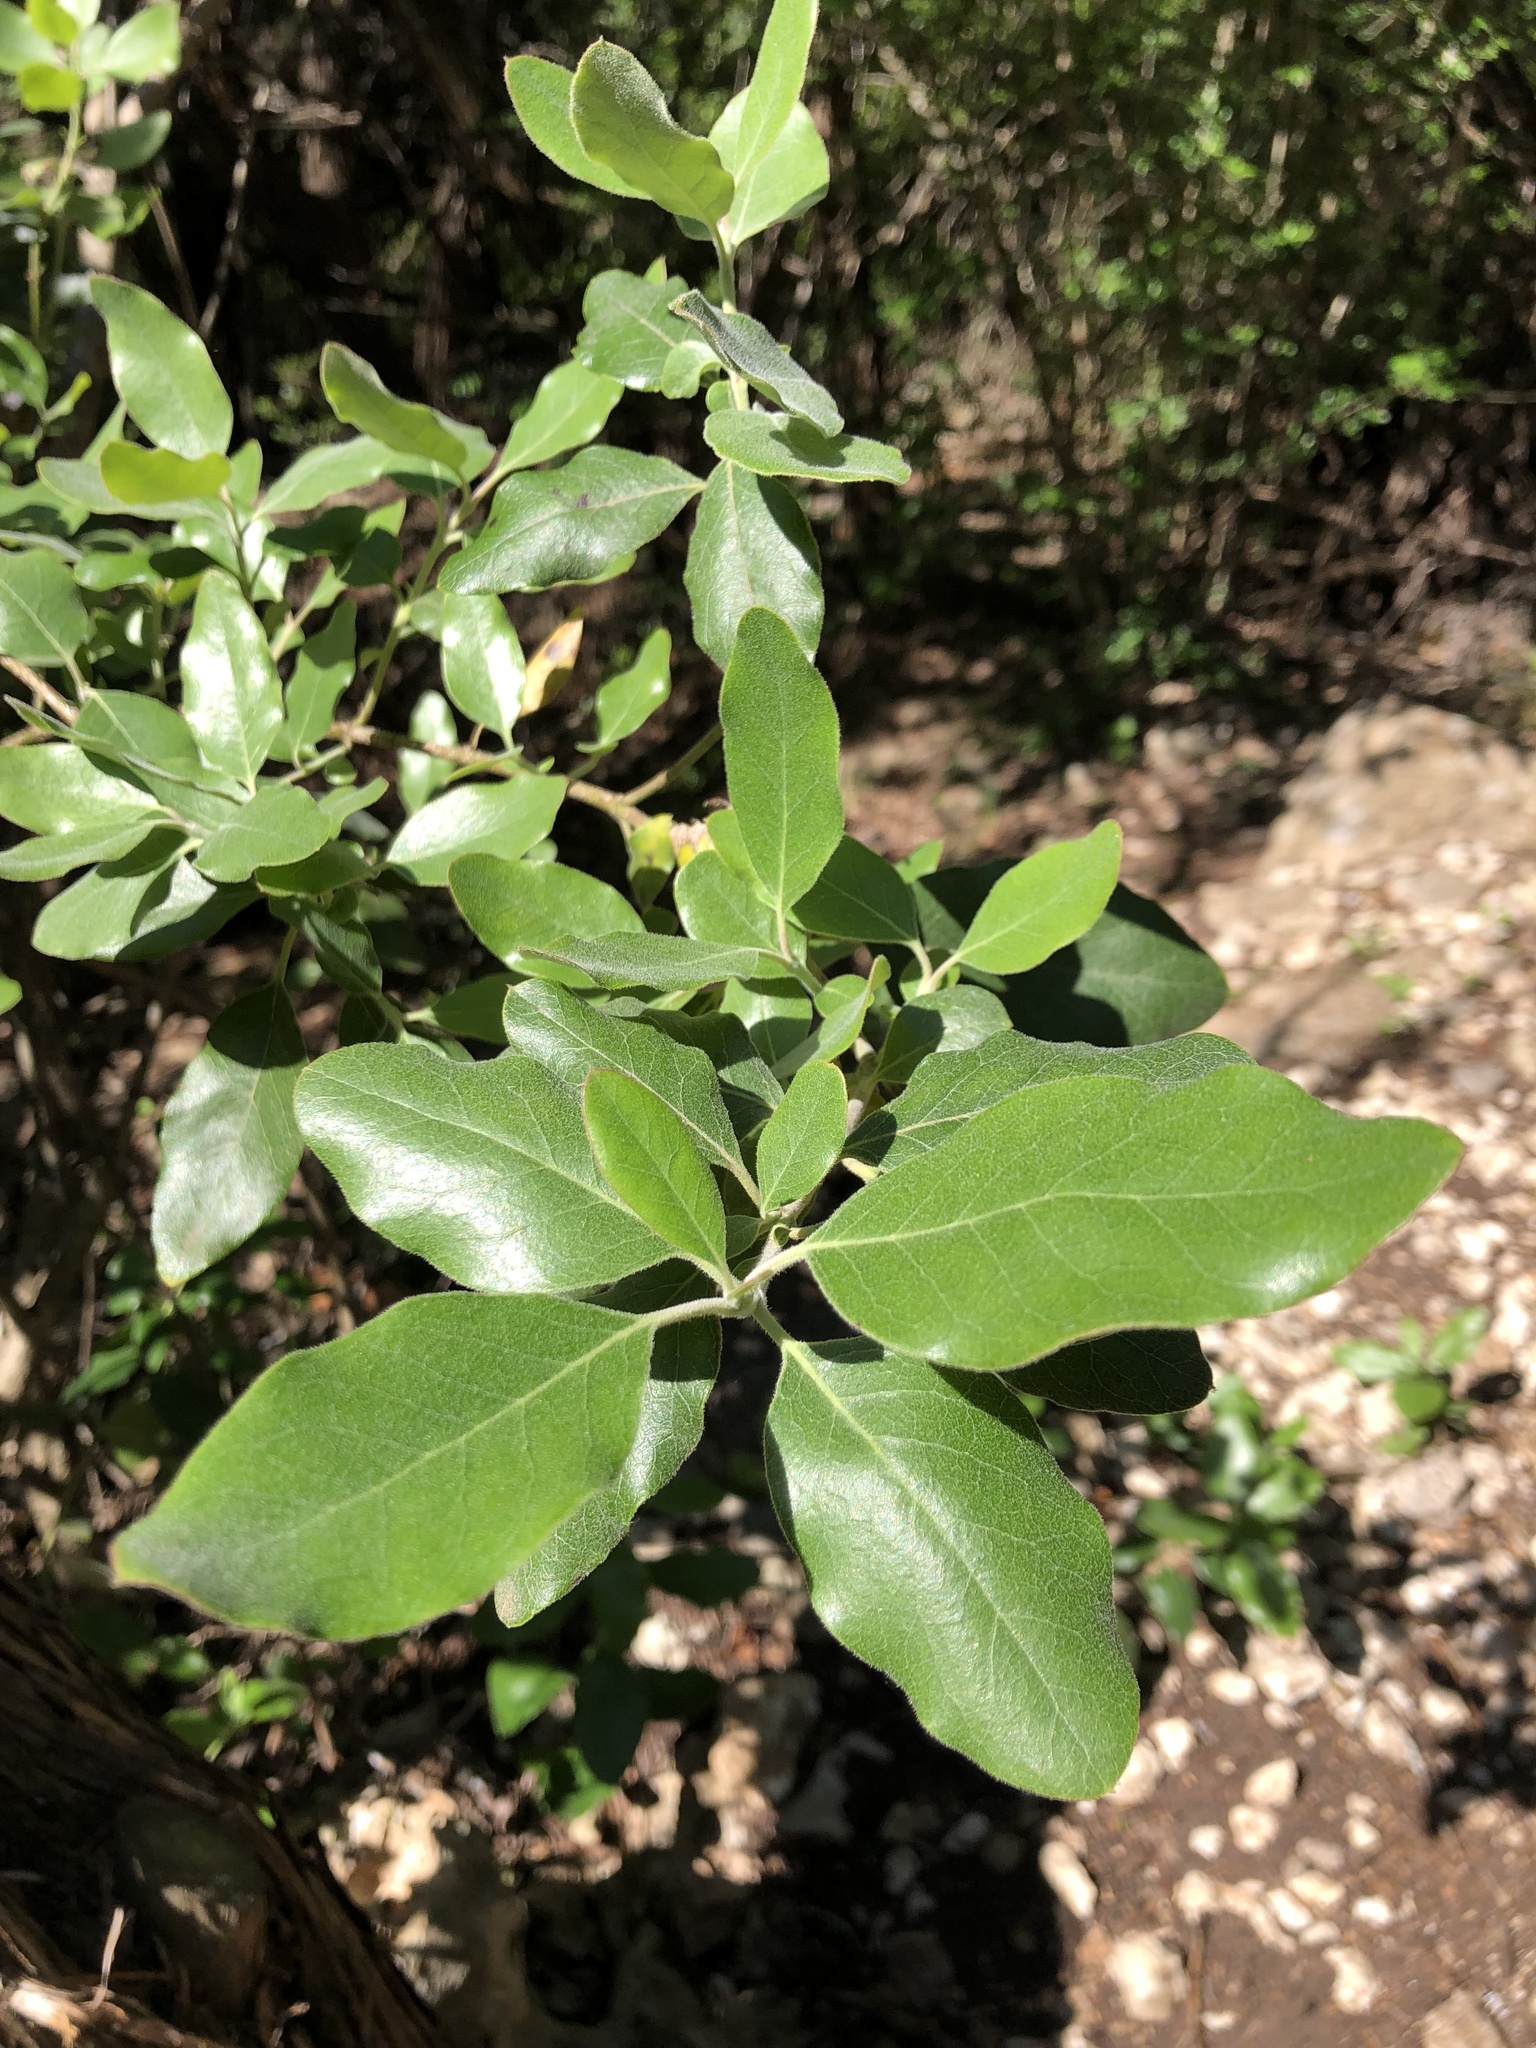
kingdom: Plantae
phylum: Tracheophyta
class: Magnoliopsida
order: Garryales
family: Garryaceae
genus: Garrya
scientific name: Garrya lindheimeri
